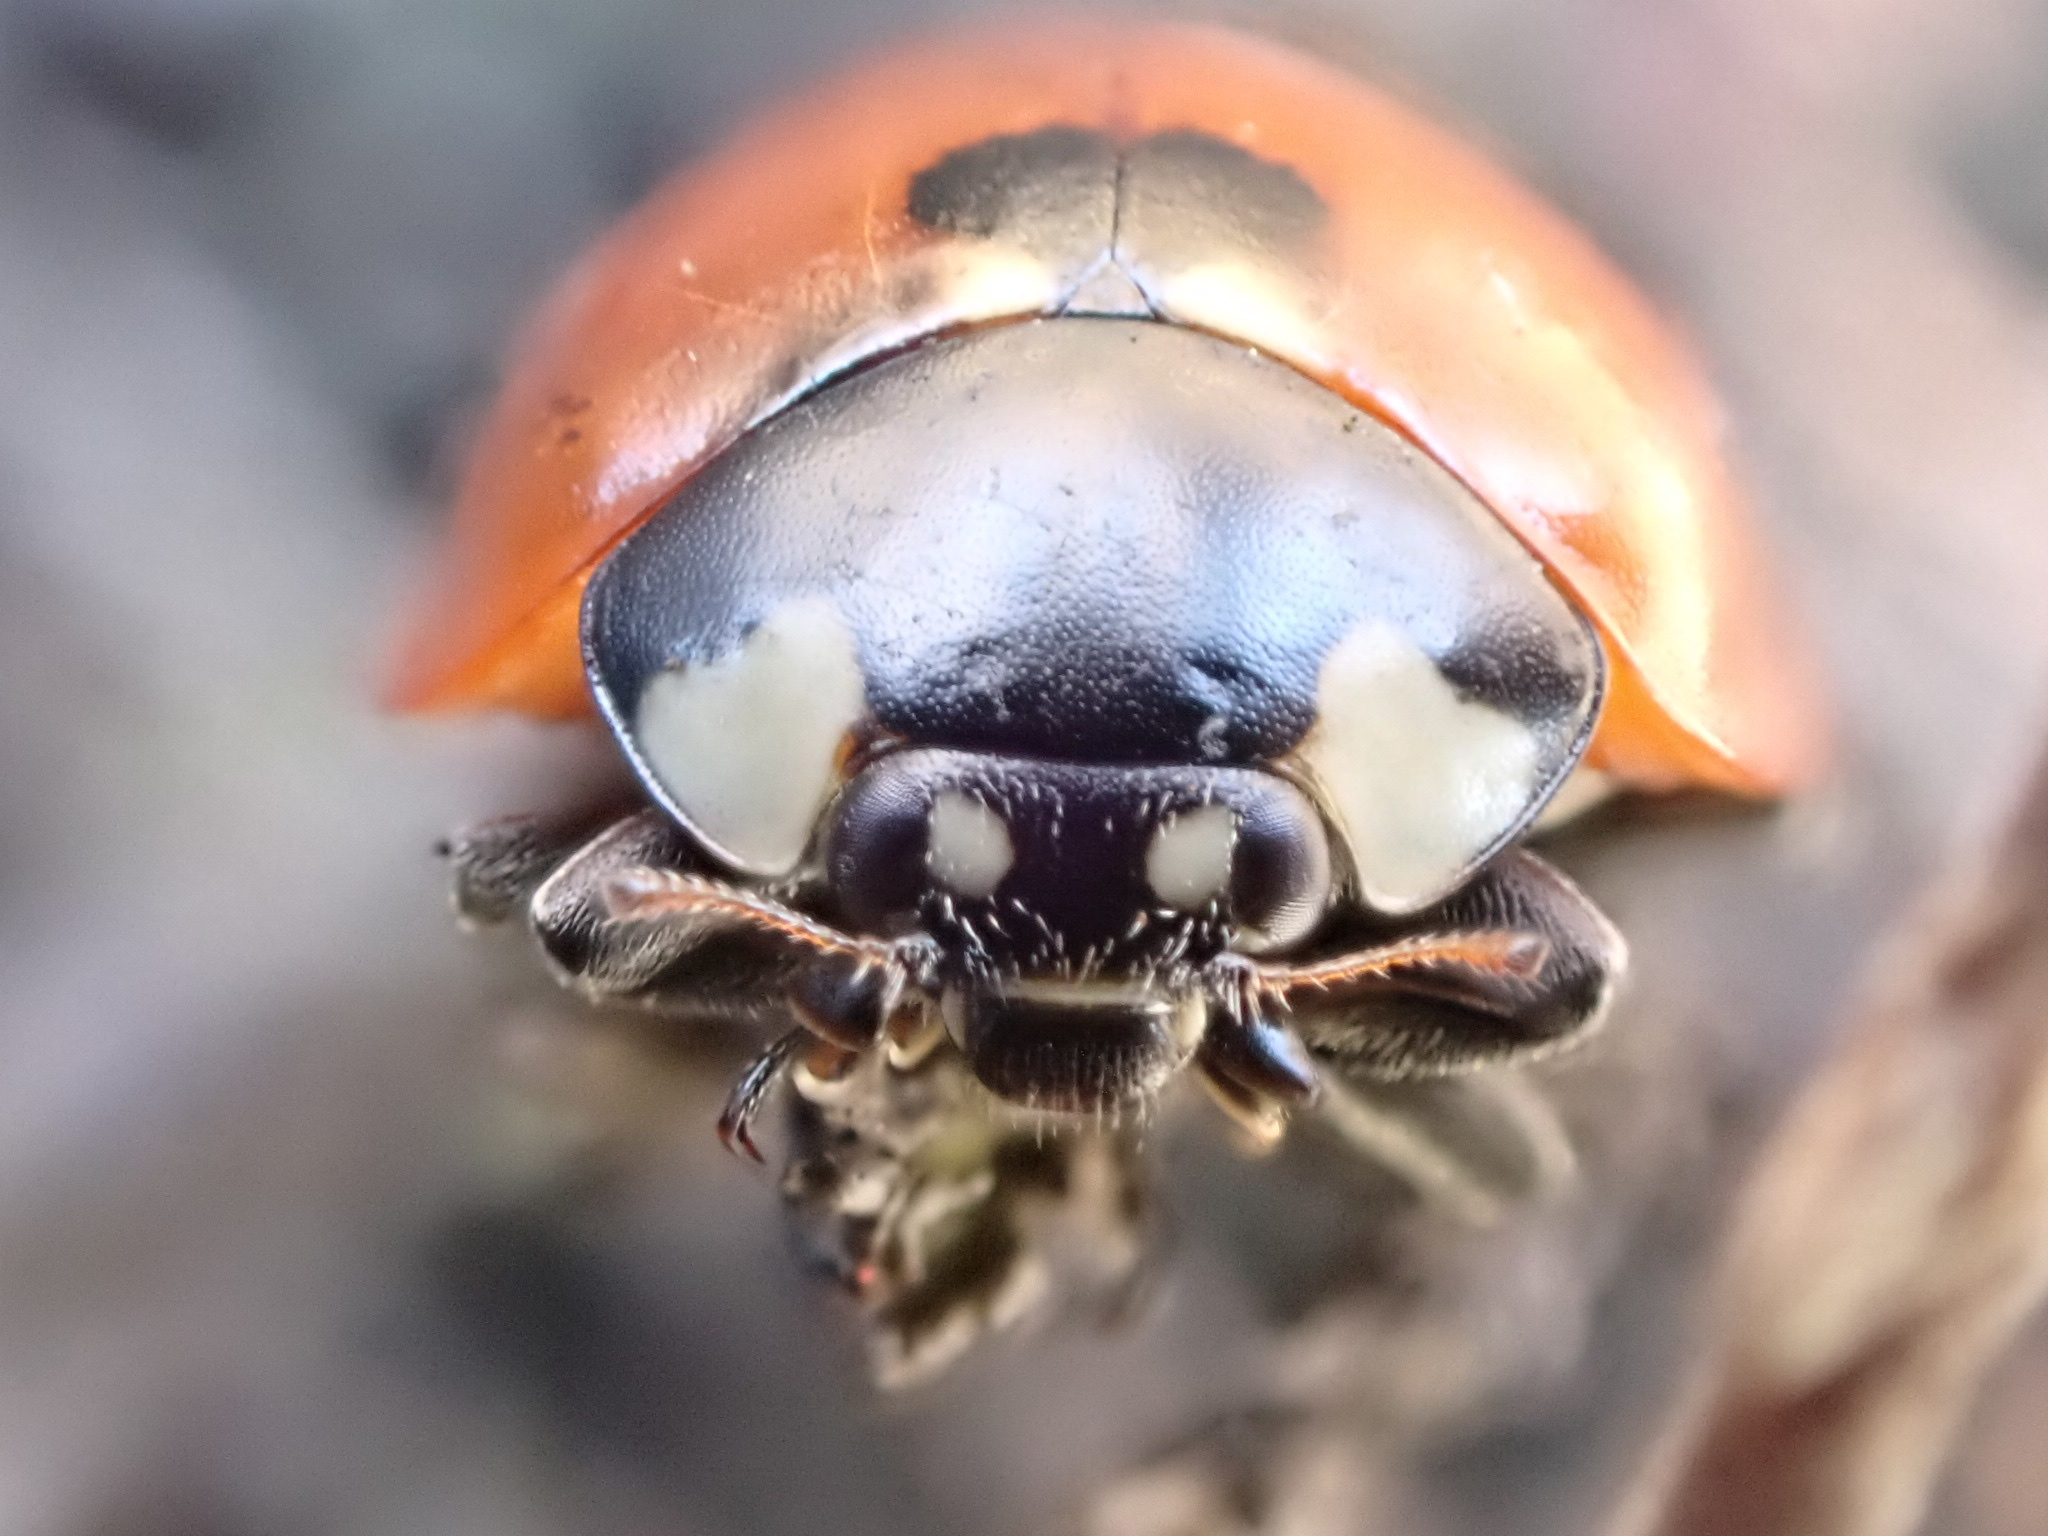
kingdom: Animalia
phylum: Arthropoda
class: Insecta
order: Coleoptera
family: Coccinellidae
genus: Coccinella
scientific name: Coccinella septempunctata
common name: Sevenspotted lady beetle
